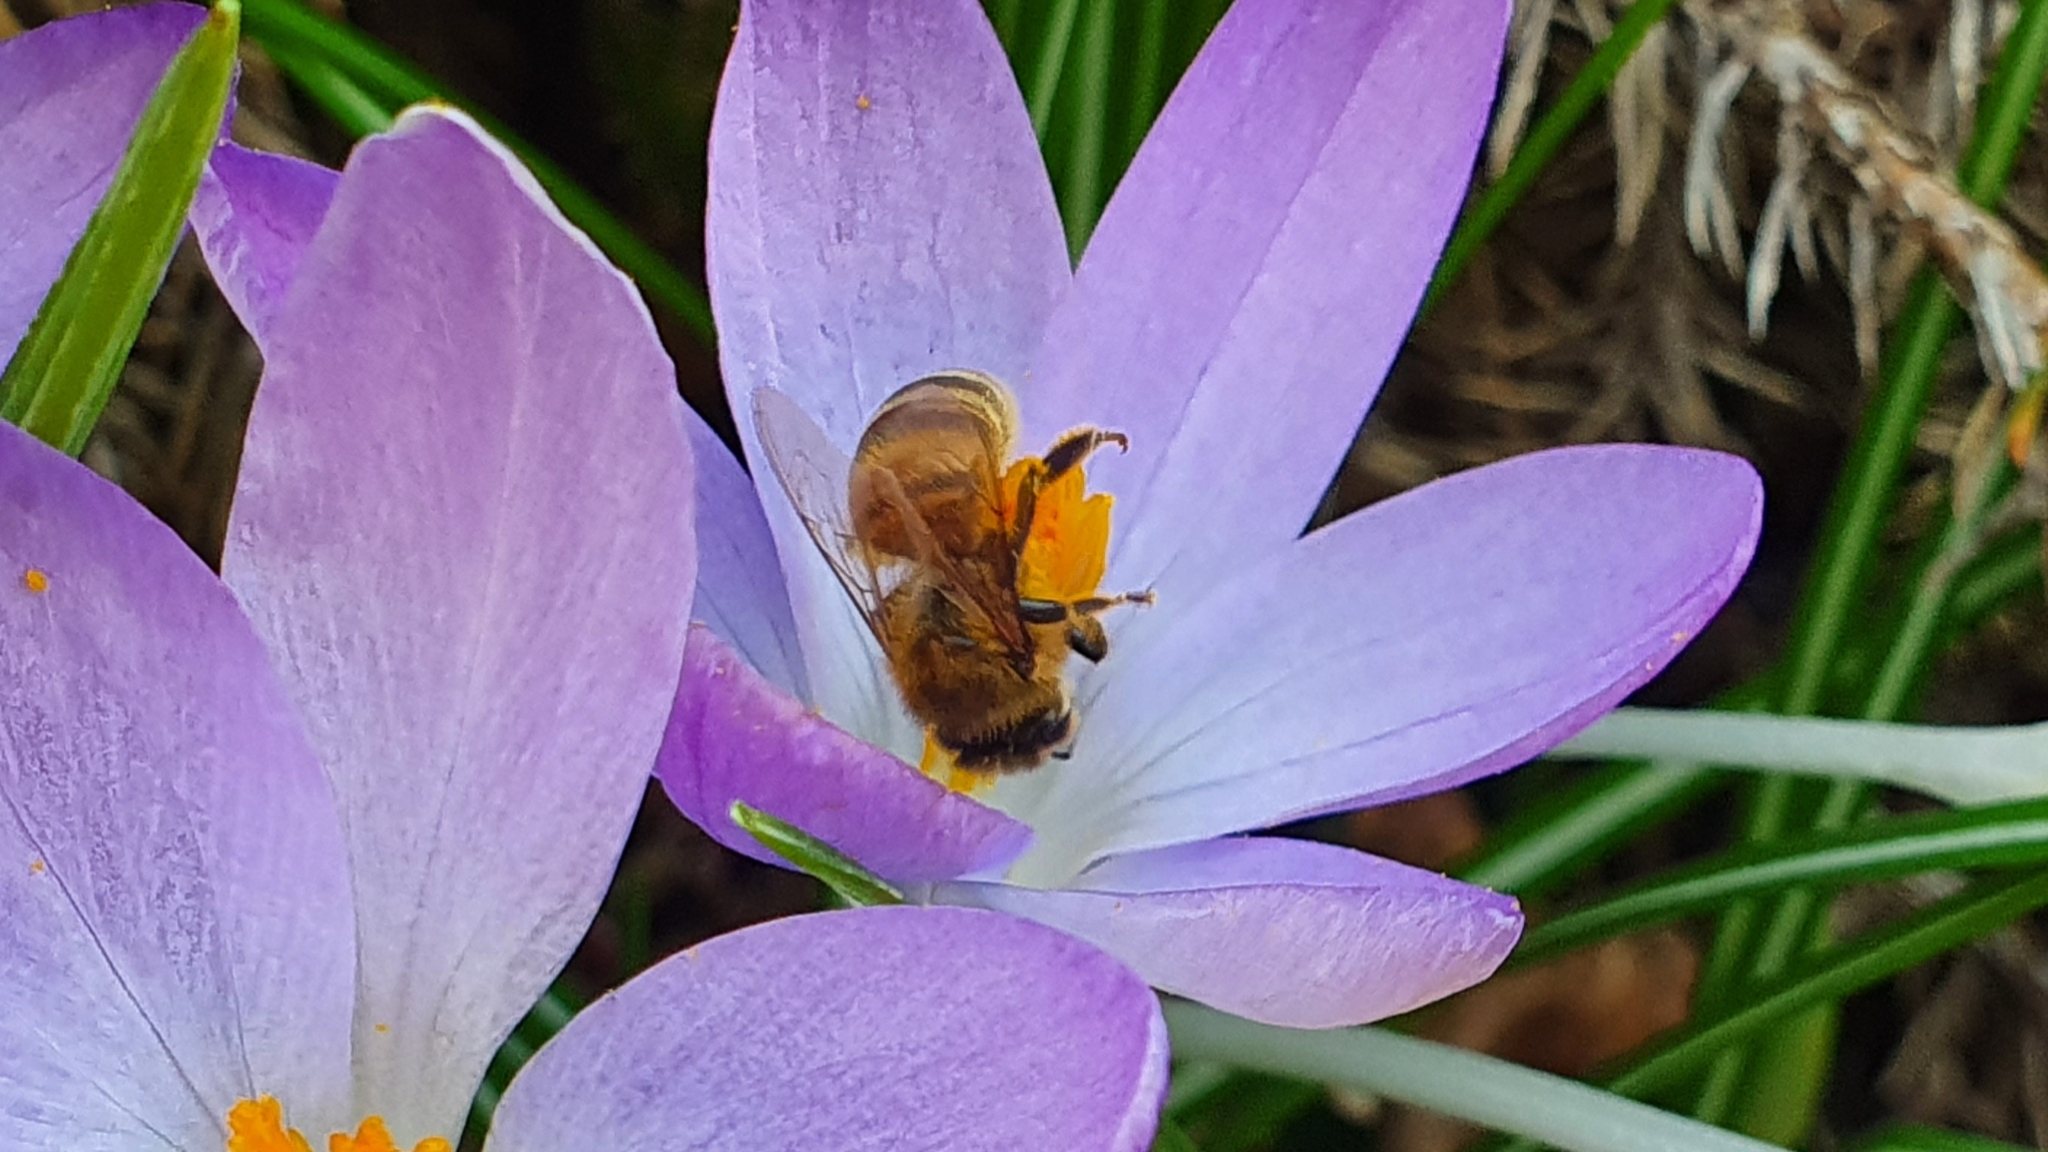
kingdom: Animalia
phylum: Arthropoda
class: Insecta
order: Hymenoptera
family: Apidae
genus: Apis
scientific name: Apis mellifera
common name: Honey bee
